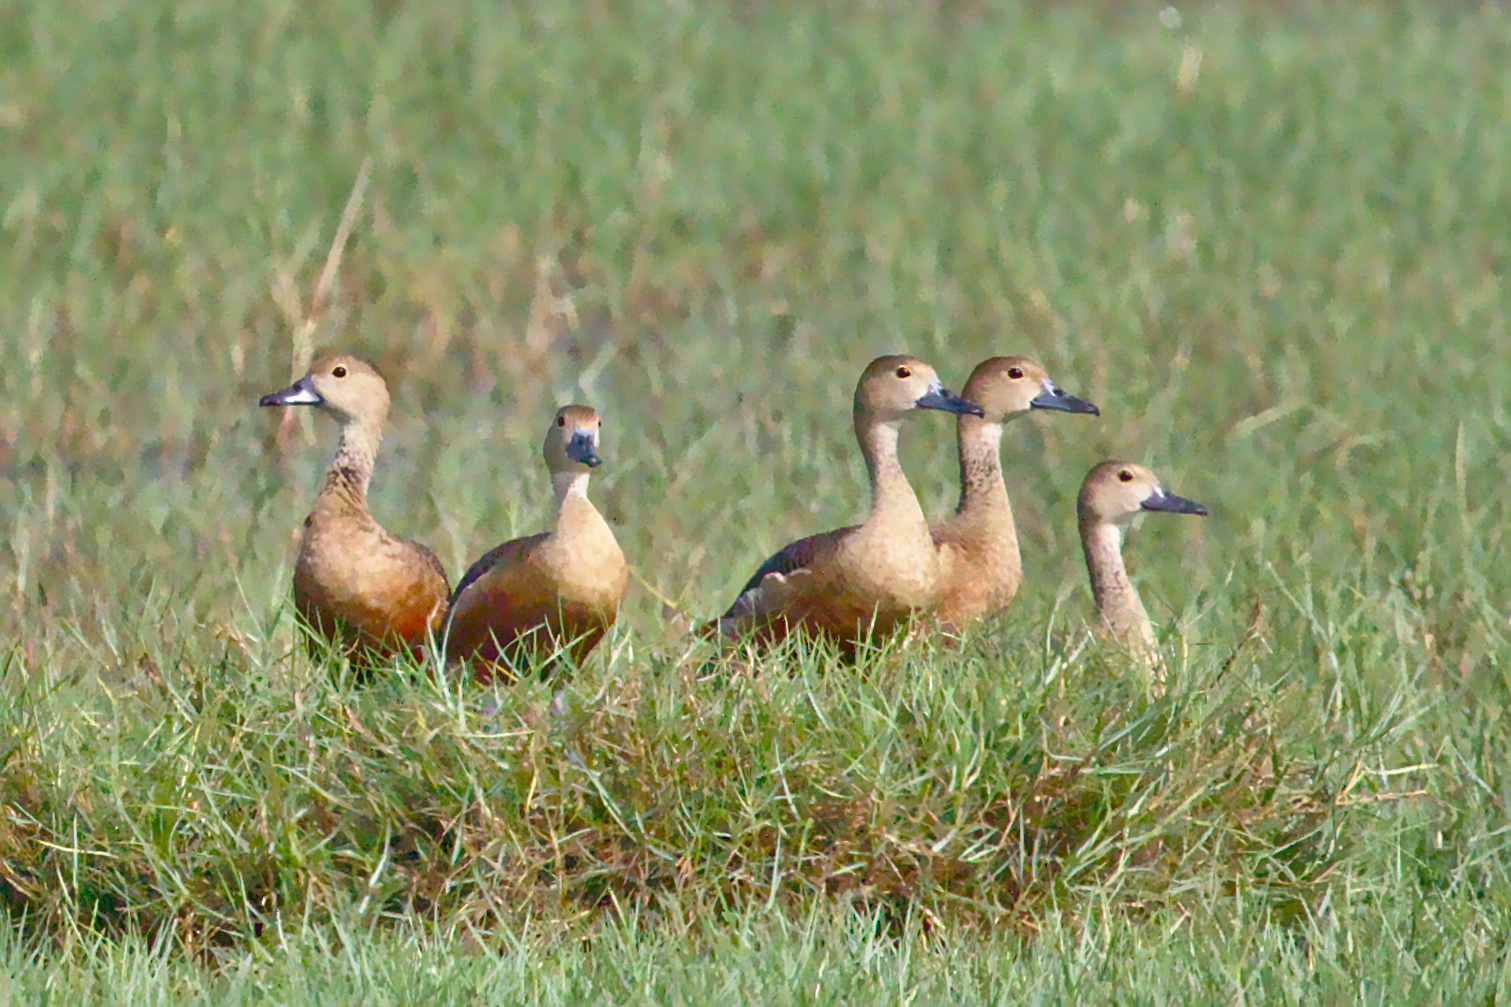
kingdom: Animalia
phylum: Chordata
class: Aves
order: Anseriformes
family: Anatidae
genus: Dendrocygna
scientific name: Dendrocygna javanica
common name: Lesser whistling-duck
